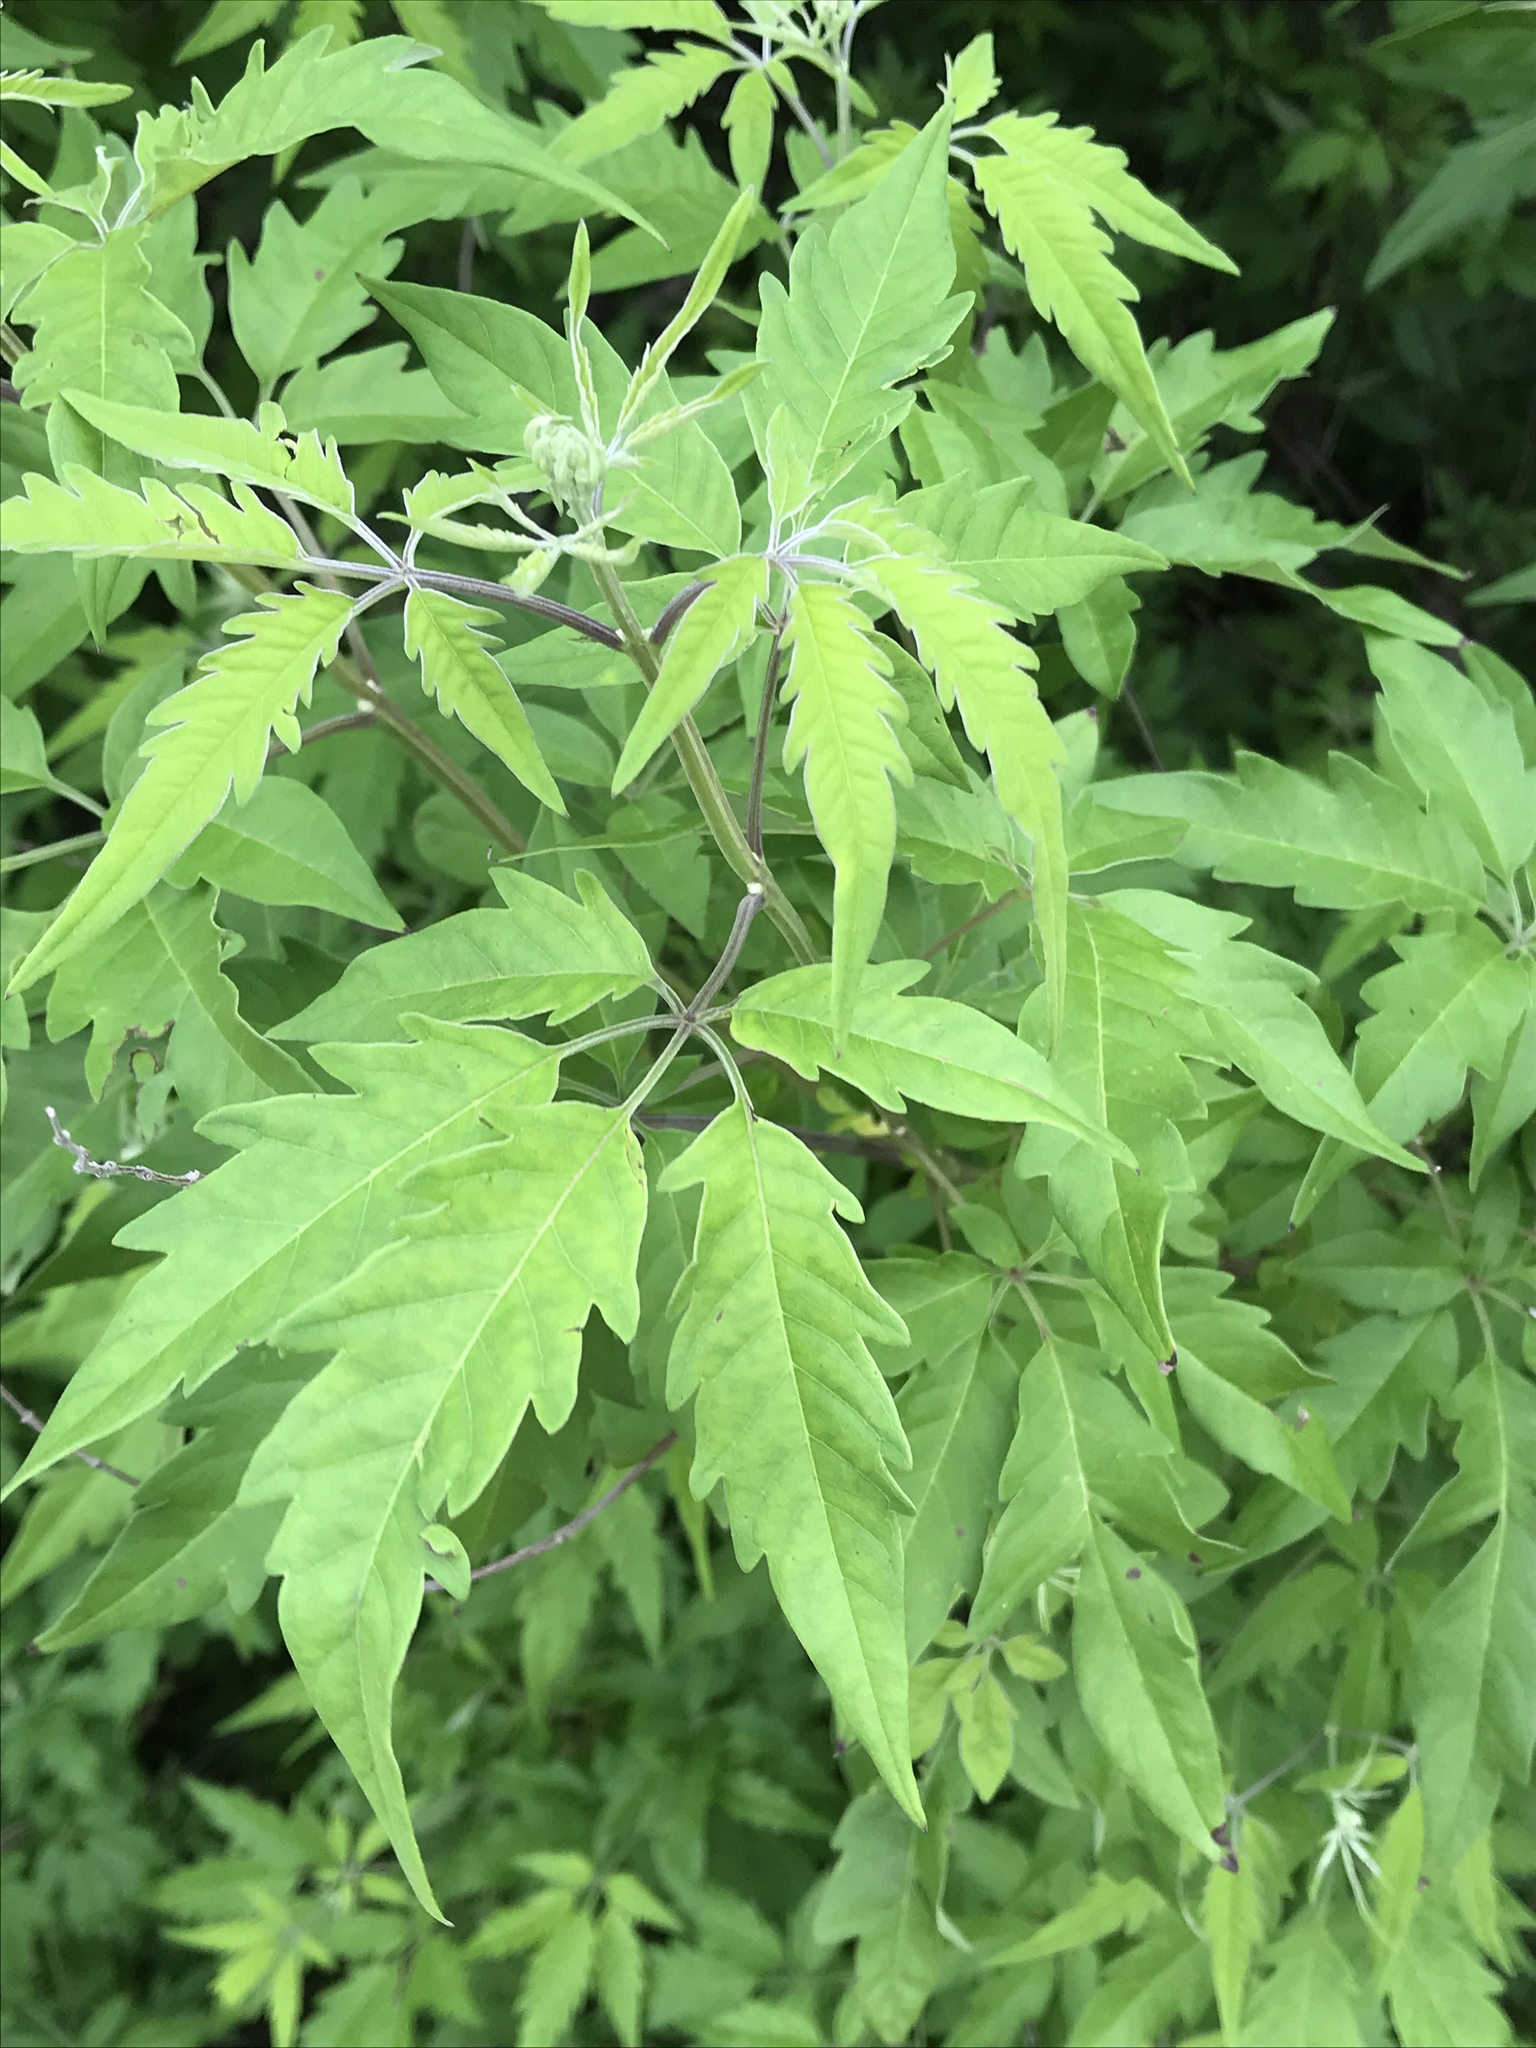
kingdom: Plantae
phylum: Tracheophyta
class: Magnoliopsida
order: Lamiales
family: Lamiaceae
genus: Vitex
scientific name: Vitex negundo
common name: Chinese chastetree
